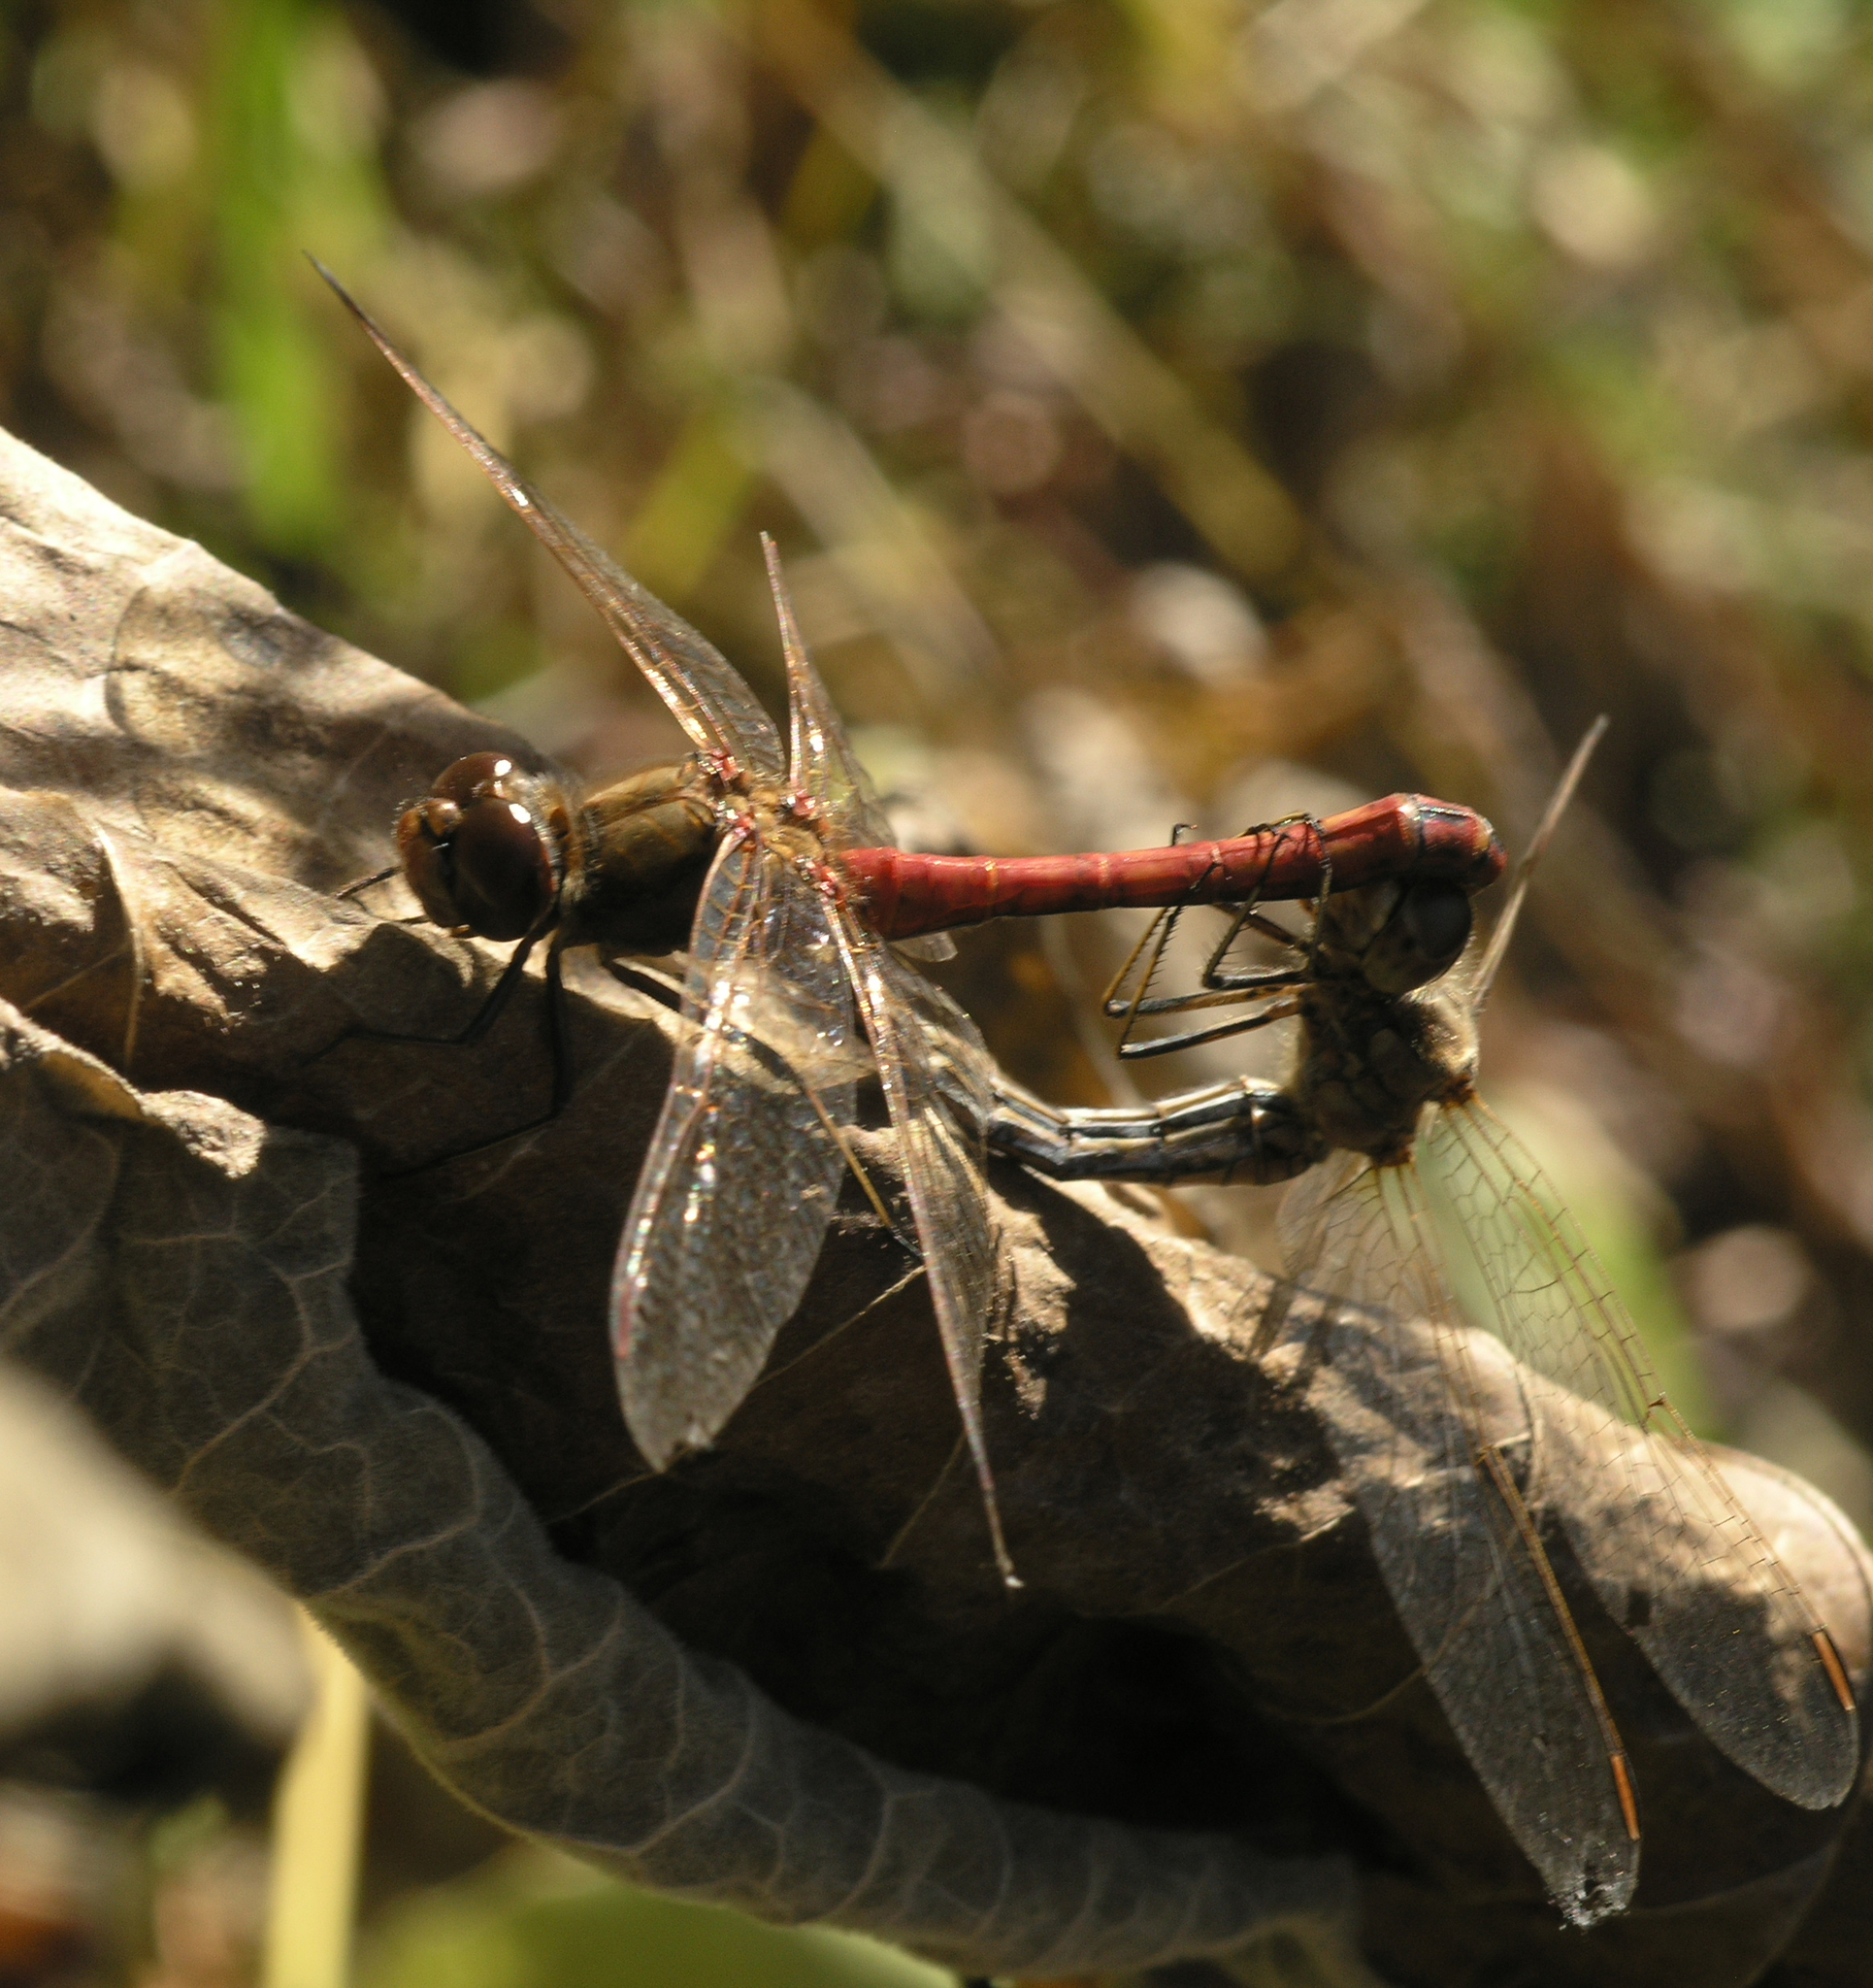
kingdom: Animalia
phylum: Arthropoda
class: Insecta
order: Odonata
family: Libellulidae
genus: Sympetrum
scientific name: Sympetrum vulgatum
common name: Vagrant darter
